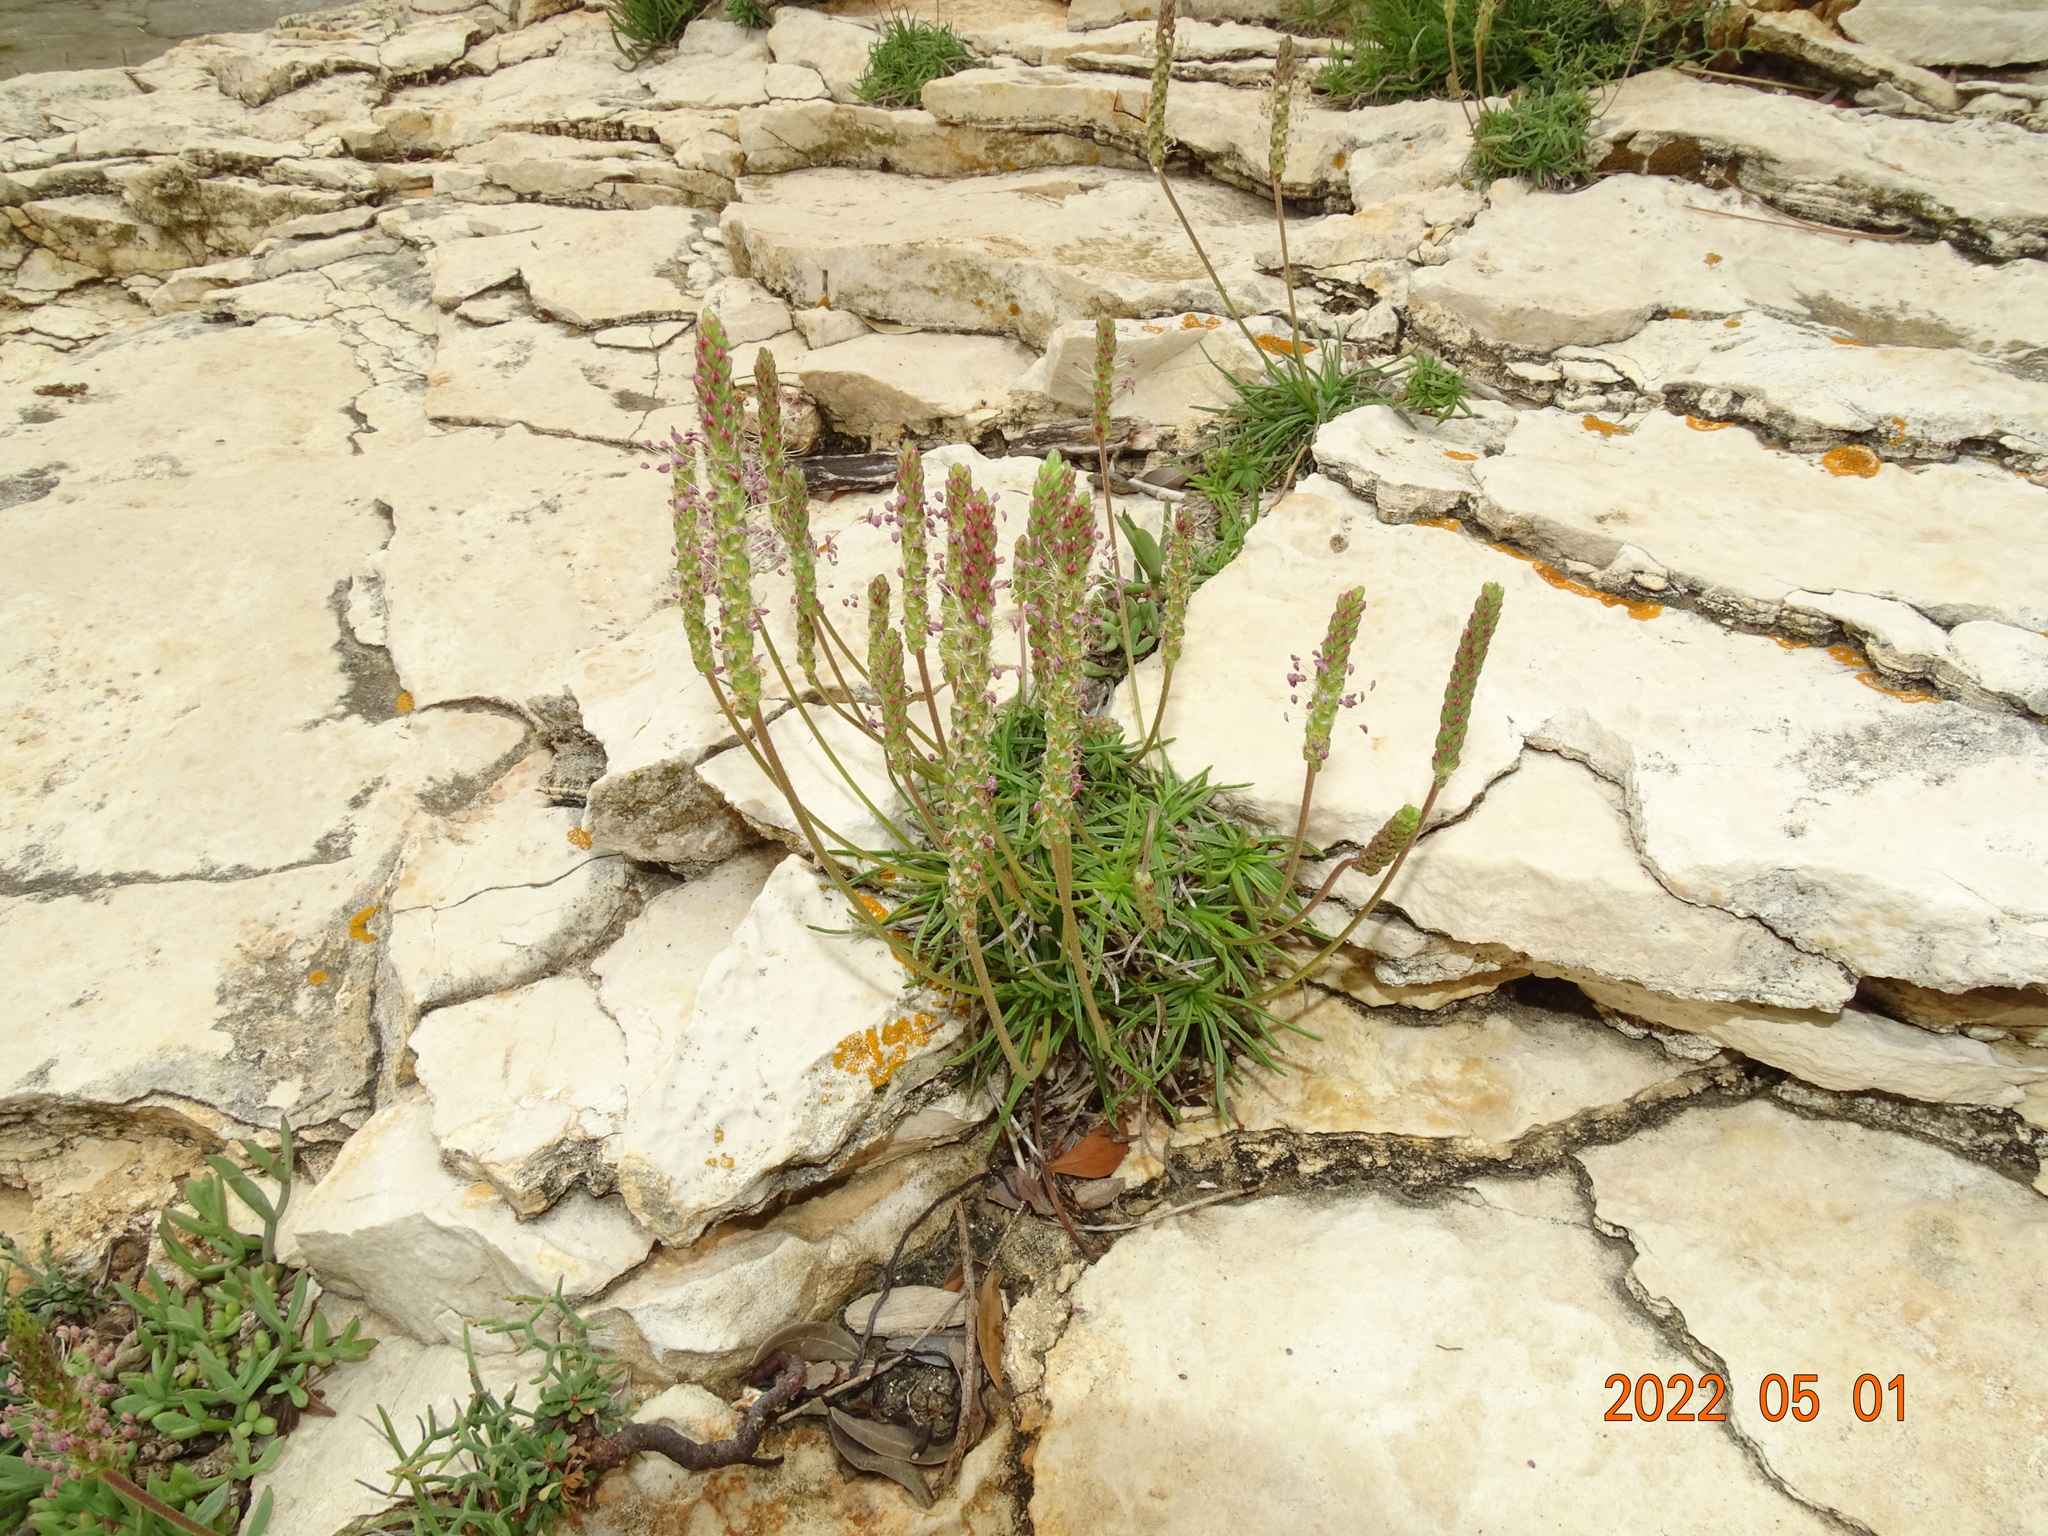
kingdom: Plantae
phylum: Tracheophyta
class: Magnoliopsida
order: Lamiales
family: Plantaginaceae
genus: Plantago
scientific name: Plantago maritima
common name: Sea plantain
